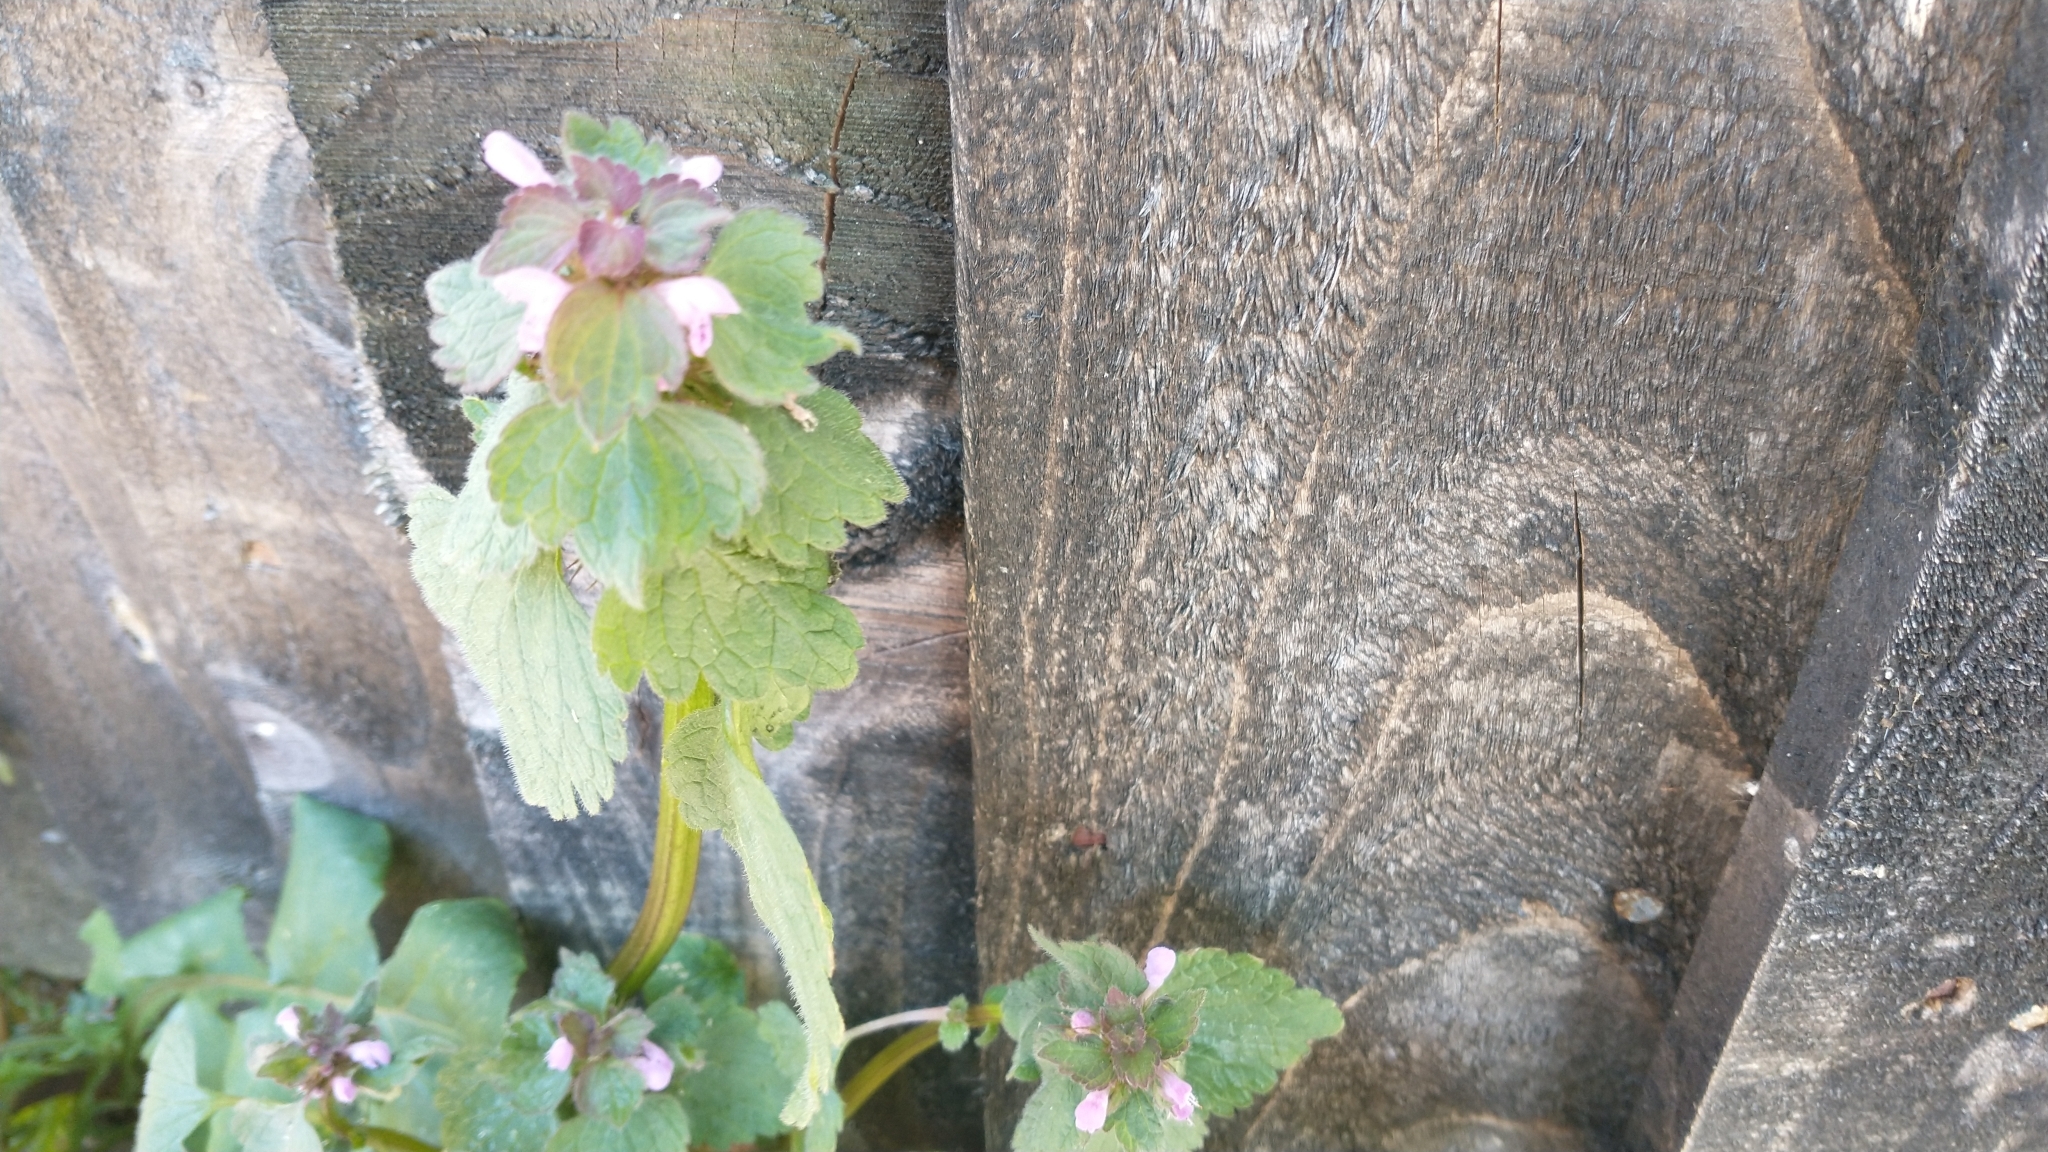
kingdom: Plantae
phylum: Tracheophyta
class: Magnoliopsida
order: Lamiales
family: Lamiaceae
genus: Lamium
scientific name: Lamium purpureum
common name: Red dead-nettle
